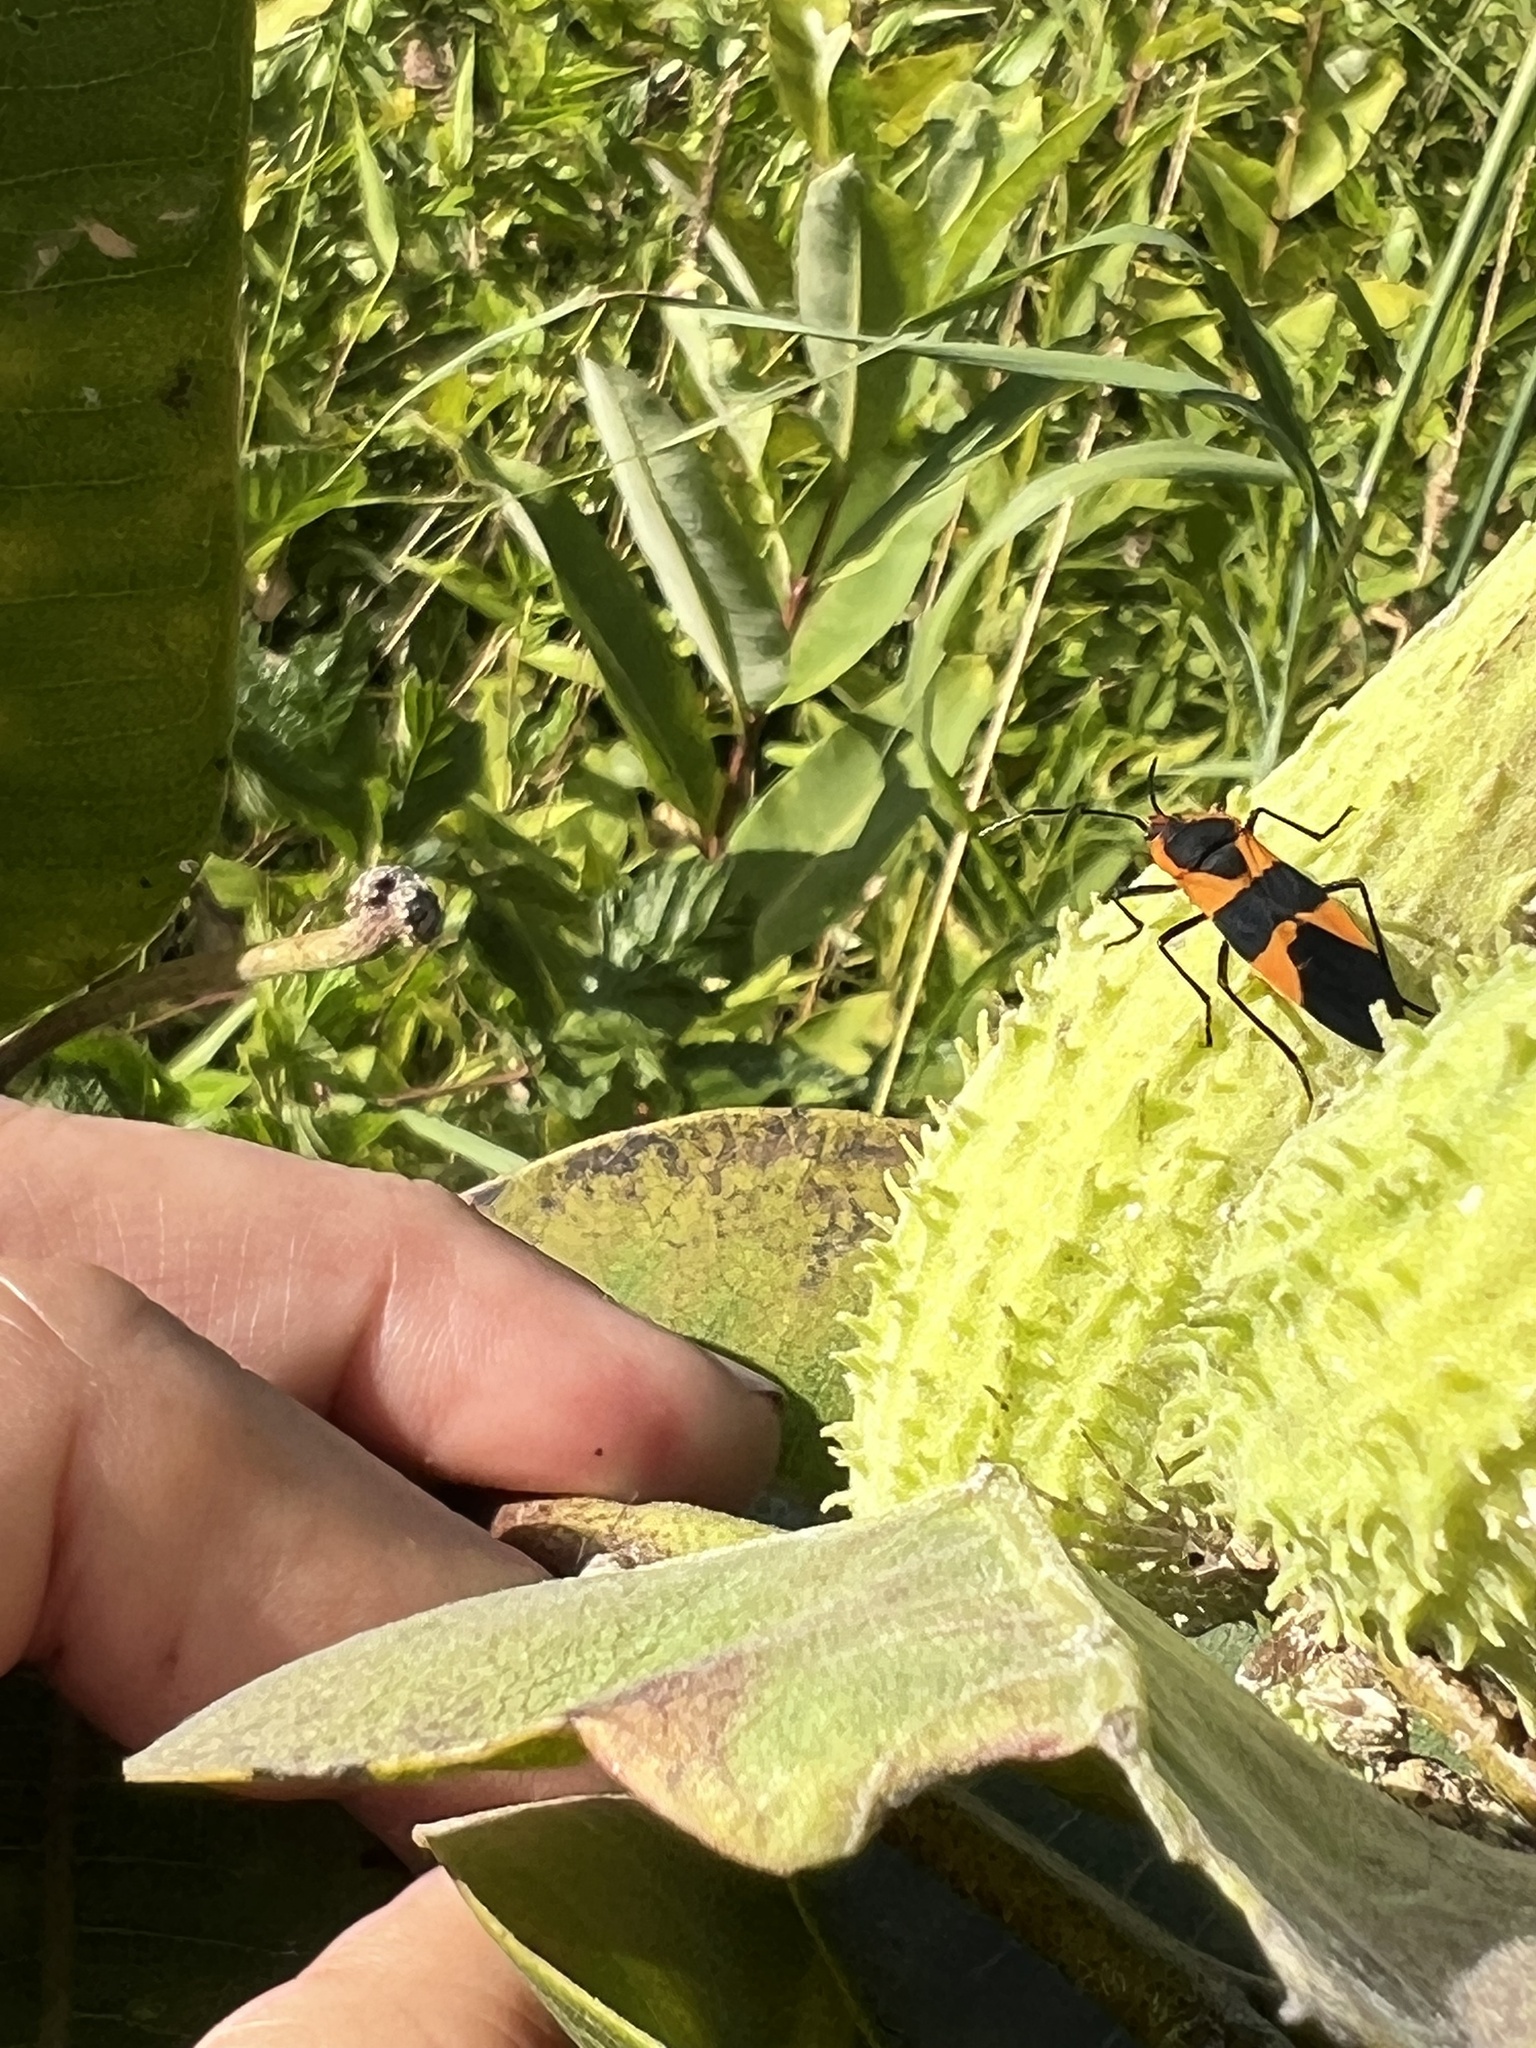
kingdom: Animalia
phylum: Arthropoda
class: Insecta
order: Hemiptera
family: Lygaeidae
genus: Oncopeltus
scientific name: Oncopeltus fasciatus
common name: Large milkweed bug
